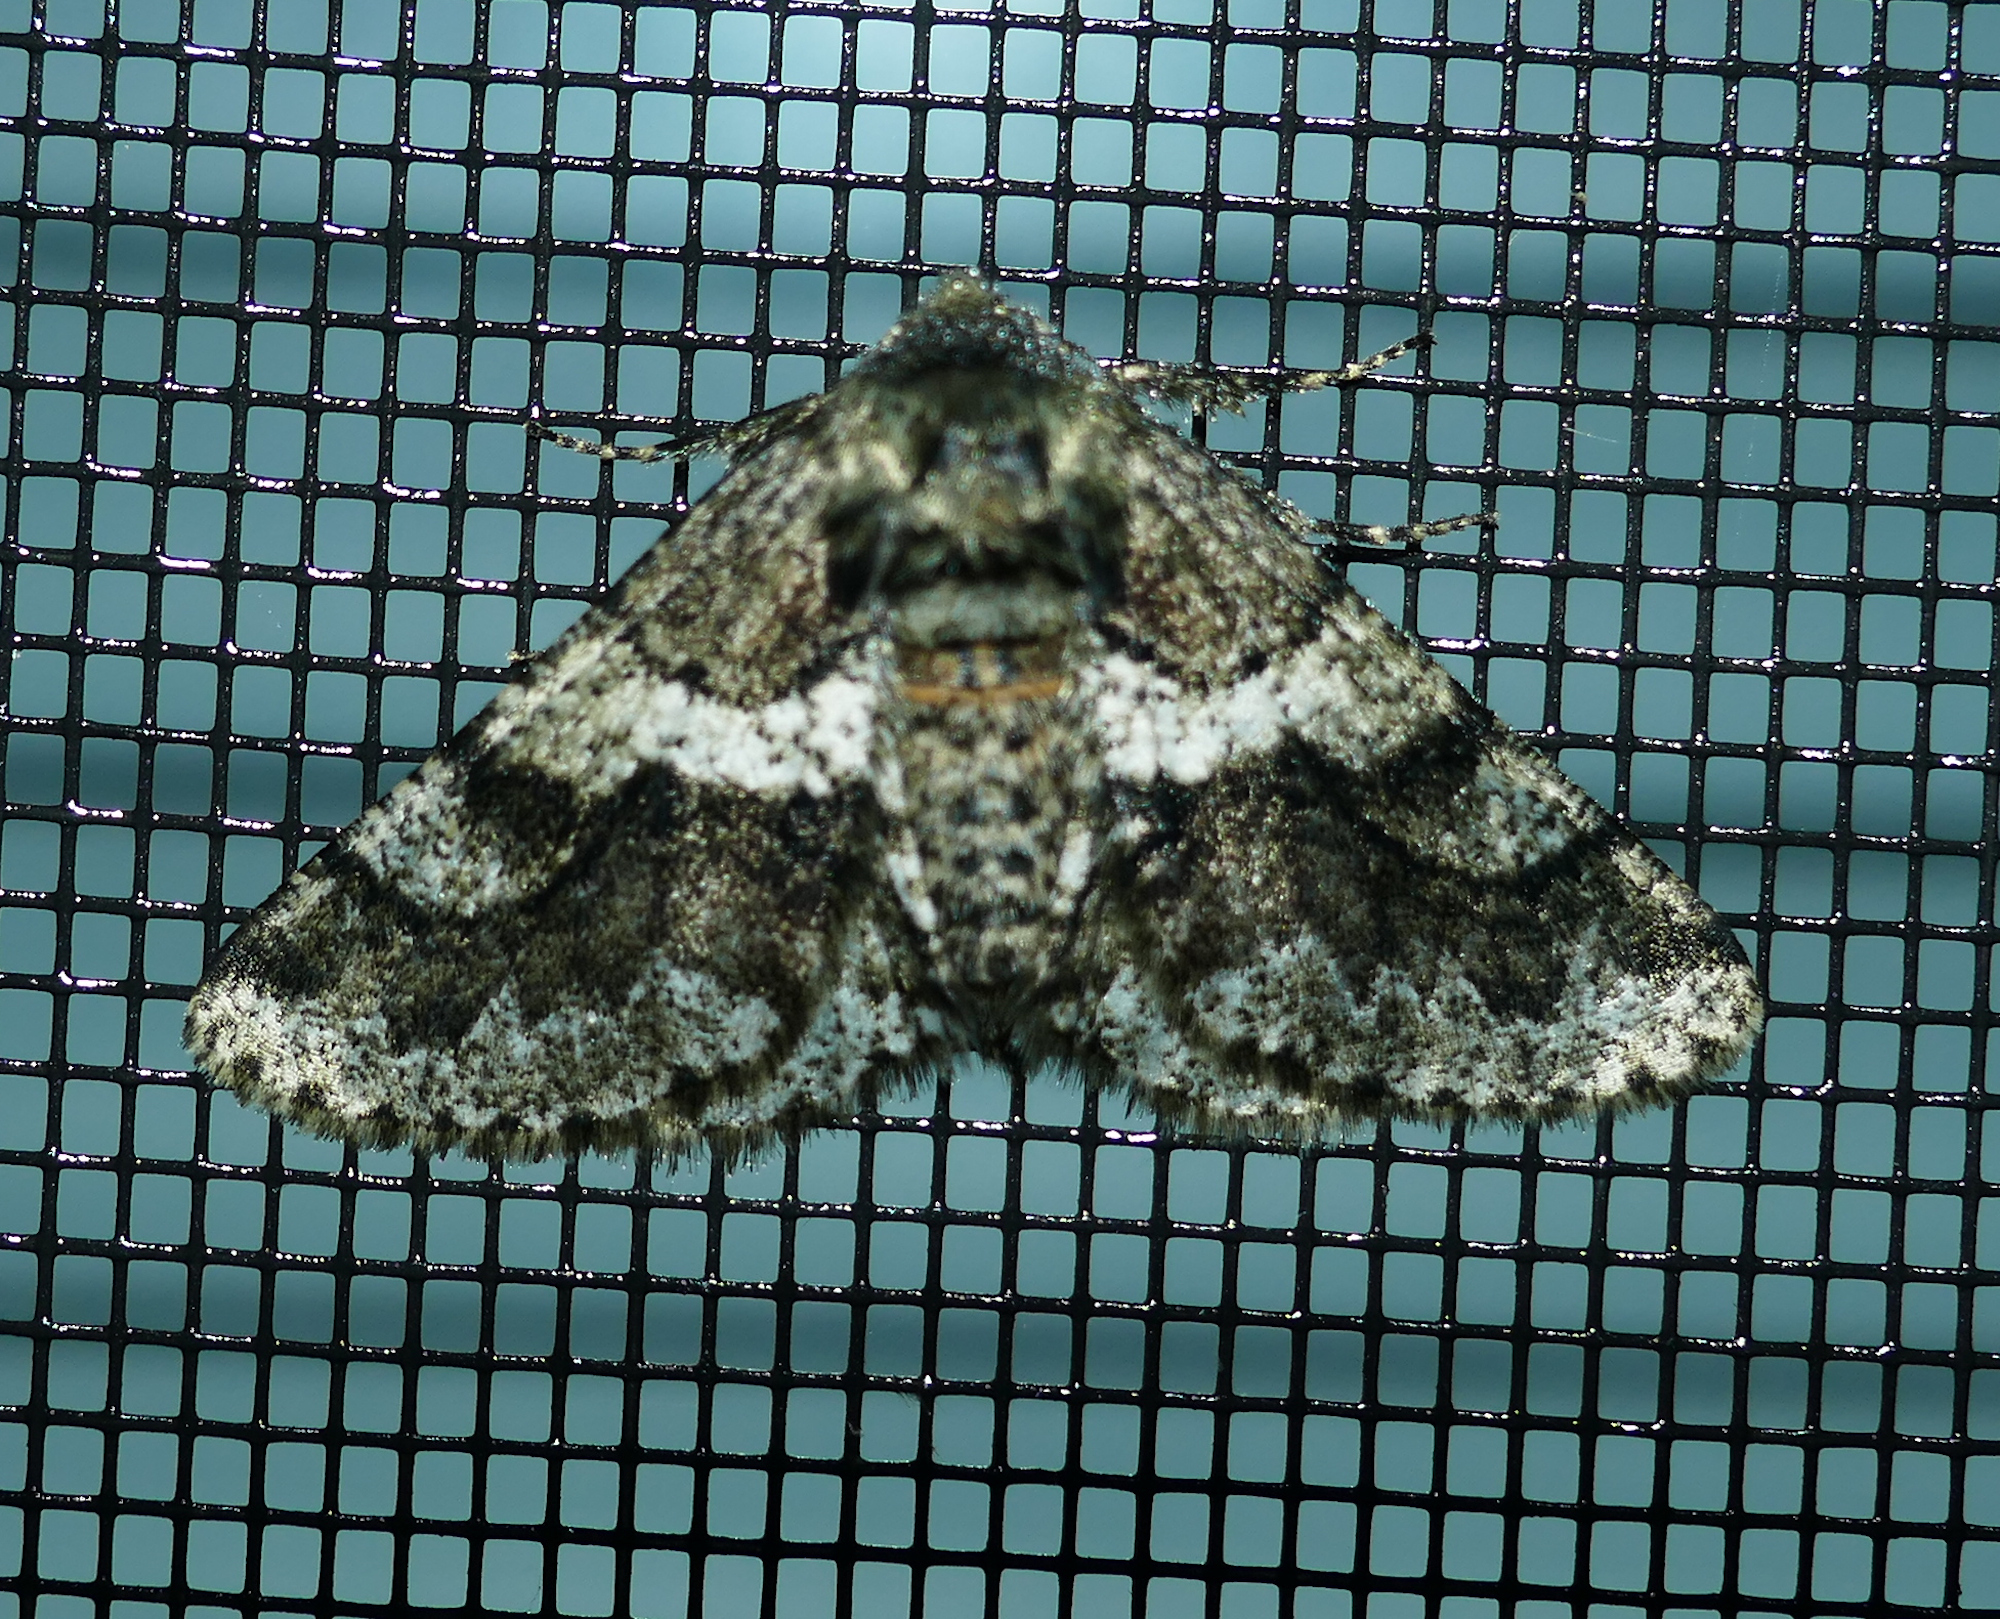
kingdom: Animalia
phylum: Arthropoda
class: Insecta
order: Lepidoptera
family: Geometridae
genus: Lycia
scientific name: Lycia ypsilon
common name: Wooly gray
